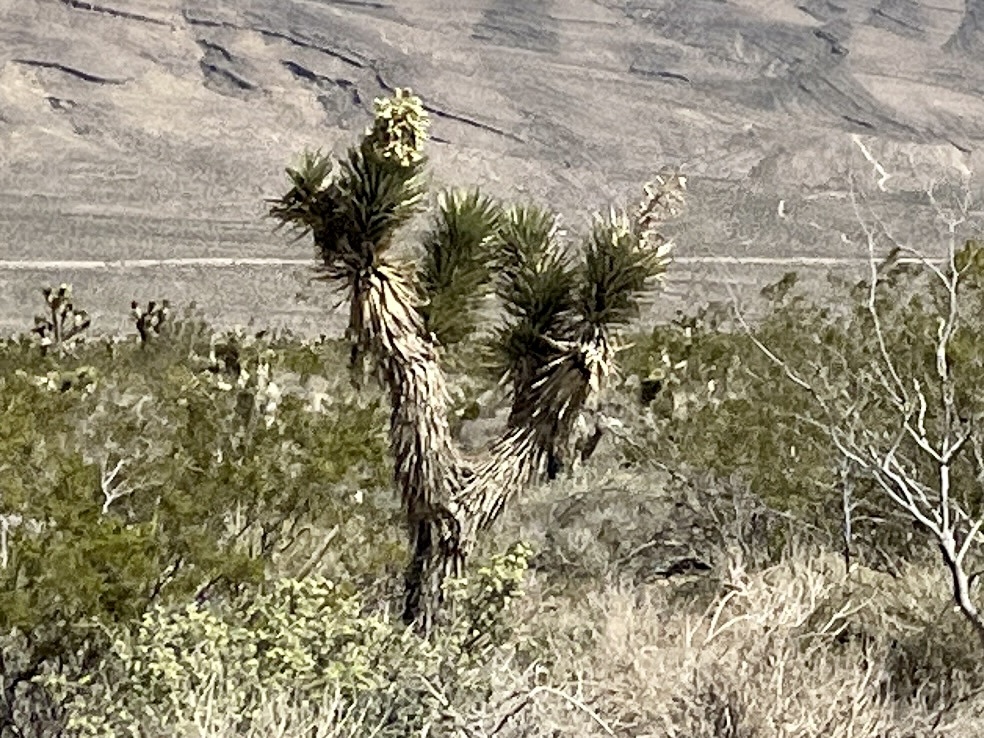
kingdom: Plantae
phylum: Tracheophyta
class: Liliopsida
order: Asparagales
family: Asparagaceae
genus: Yucca
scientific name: Yucca brevifolia
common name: Joshua tree
